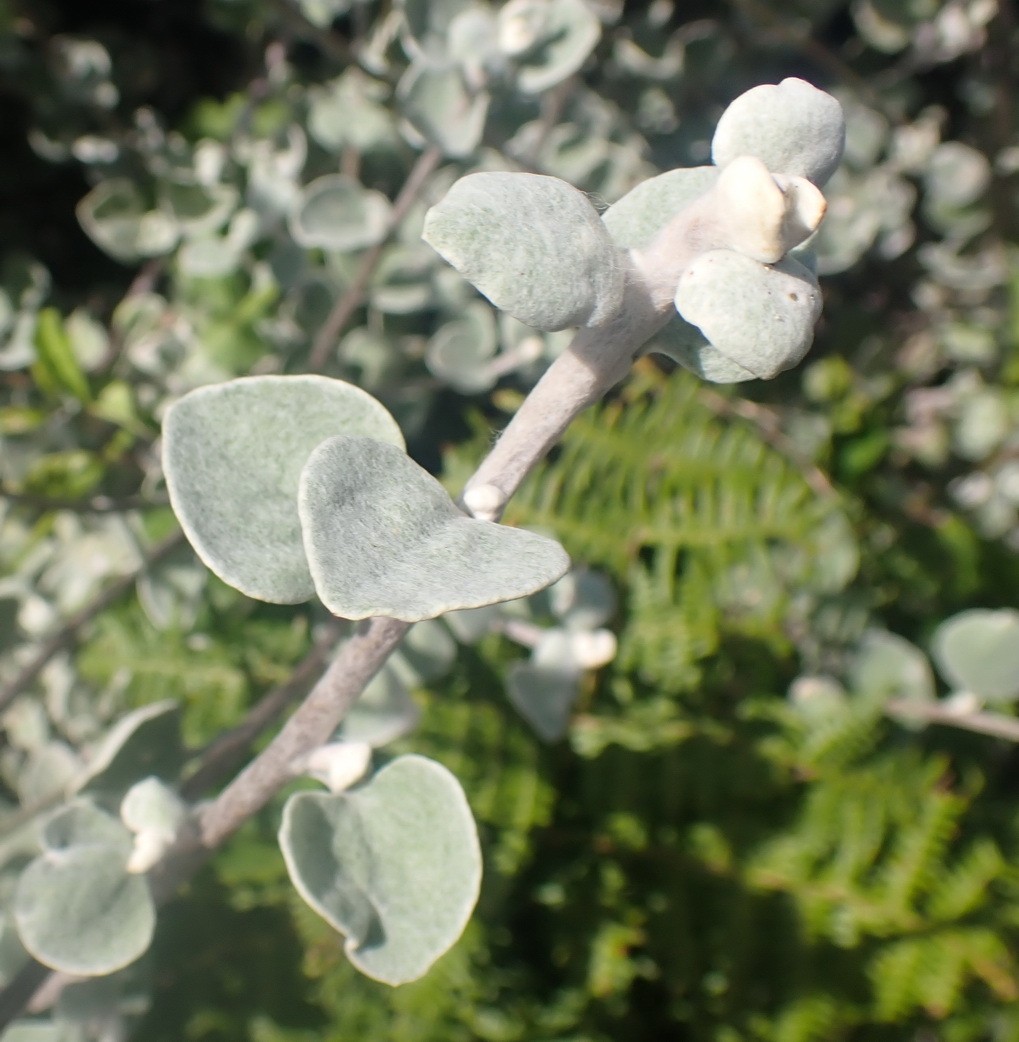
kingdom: Plantae
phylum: Tracheophyta
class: Magnoliopsida
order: Asterales
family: Asteraceae
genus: Helichrysum
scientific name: Helichrysum petiolare
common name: Licorice-plant
